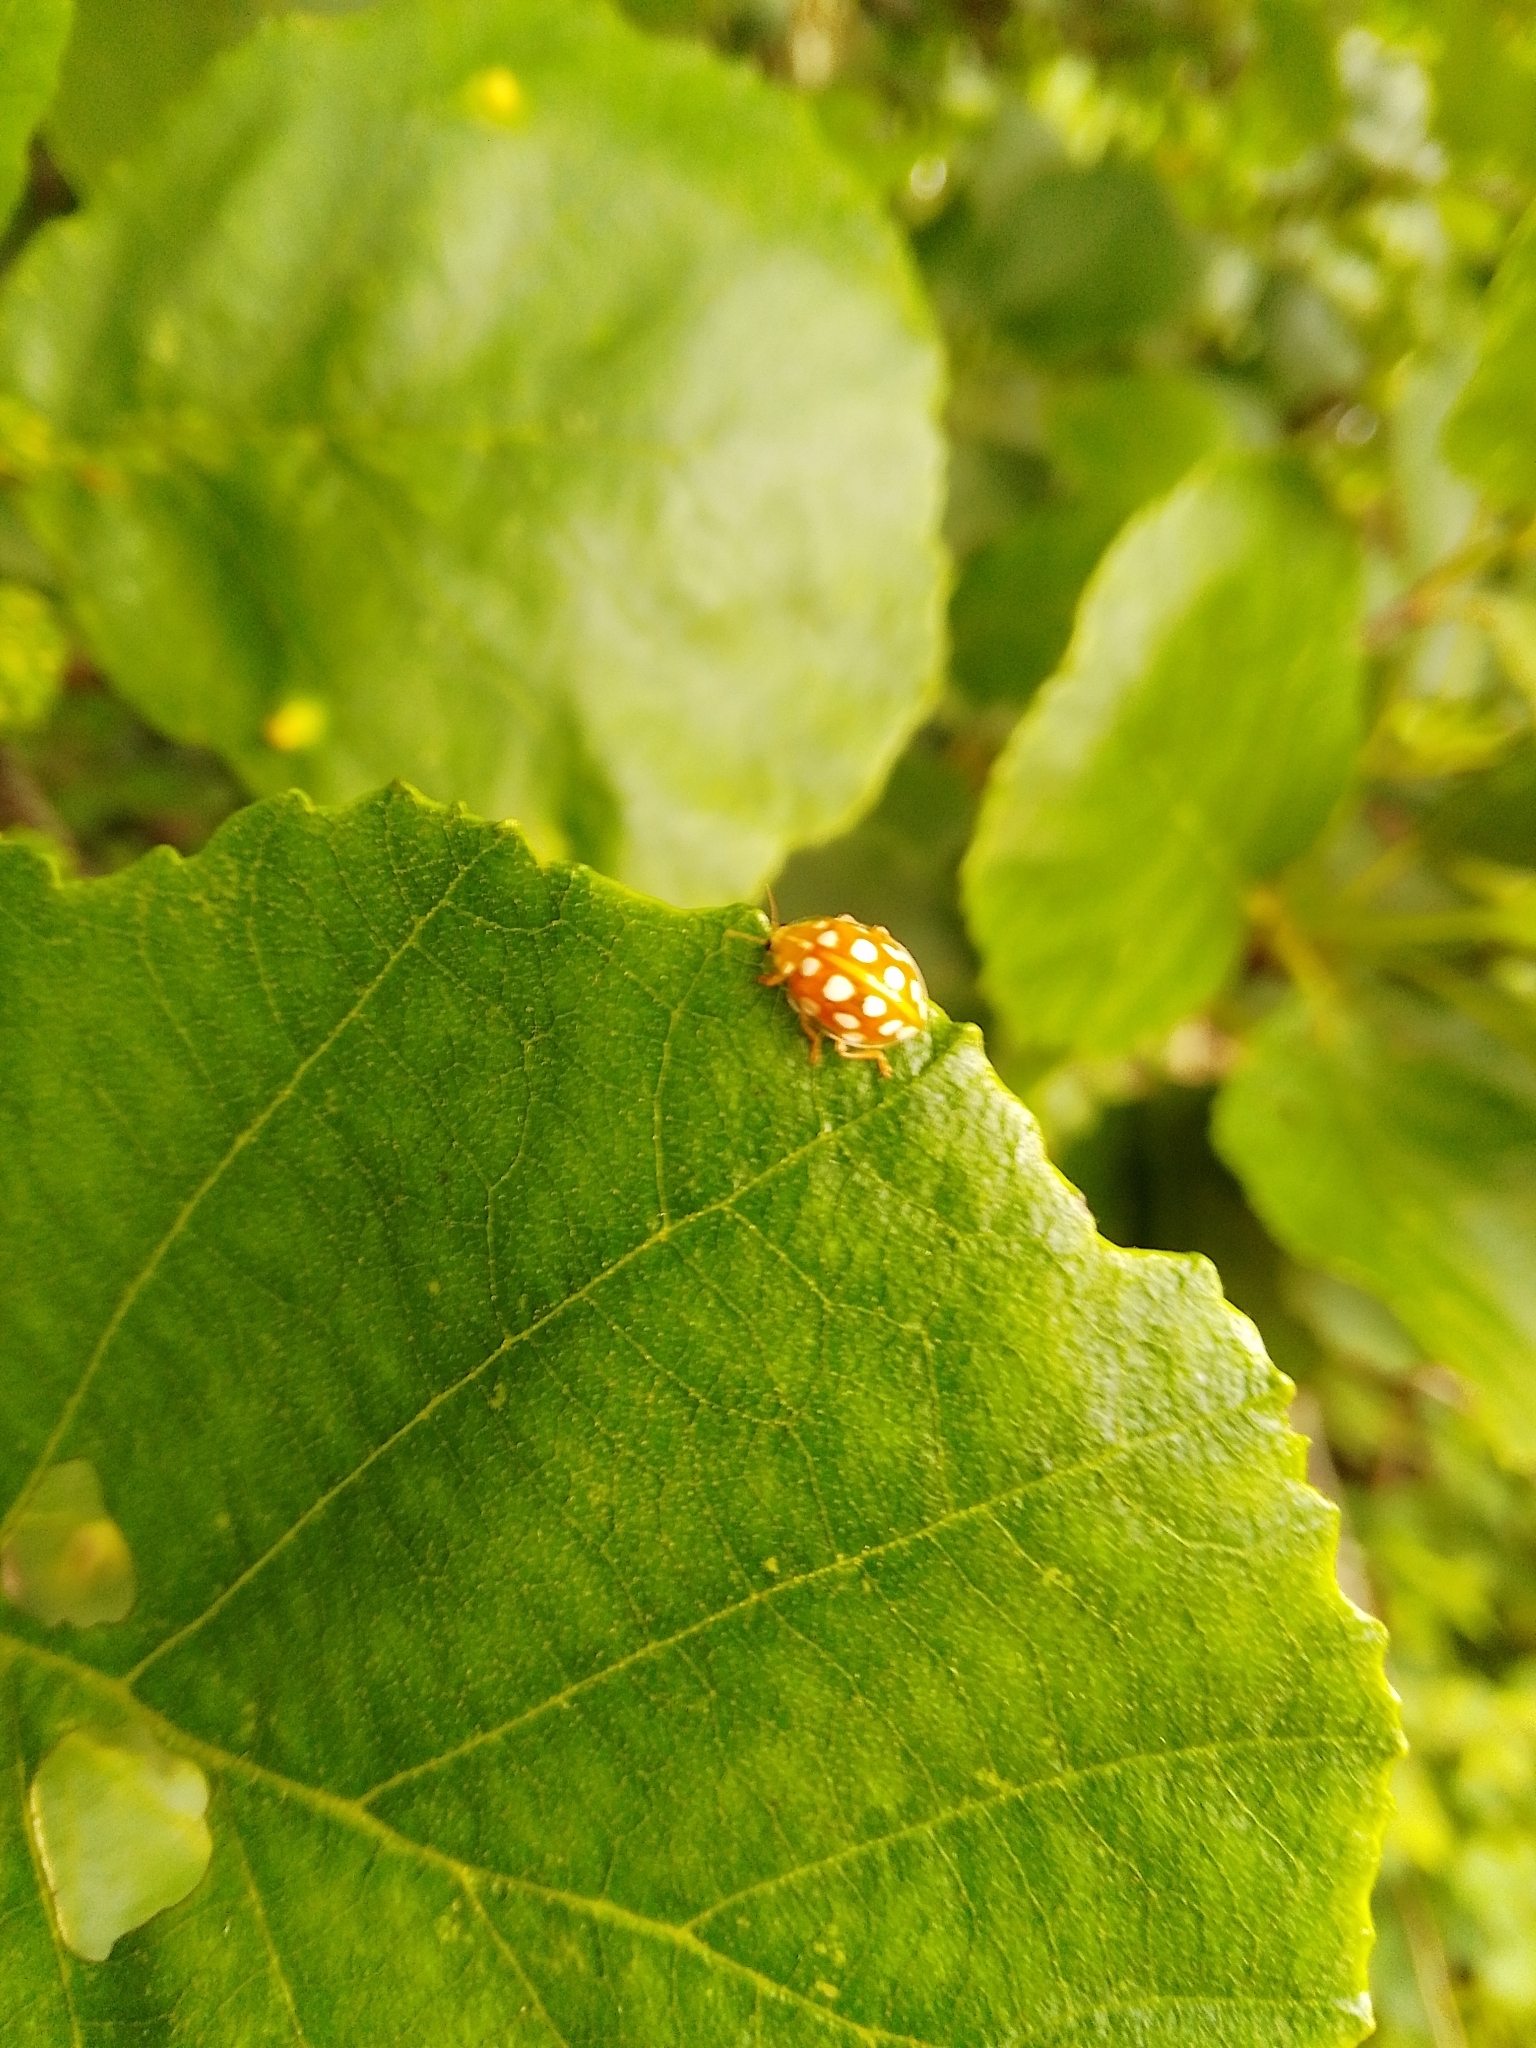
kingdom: Animalia
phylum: Arthropoda
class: Insecta
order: Coleoptera
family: Coccinellidae
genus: Halyzia
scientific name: Halyzia sedecimguttata
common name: Orange ladybird
